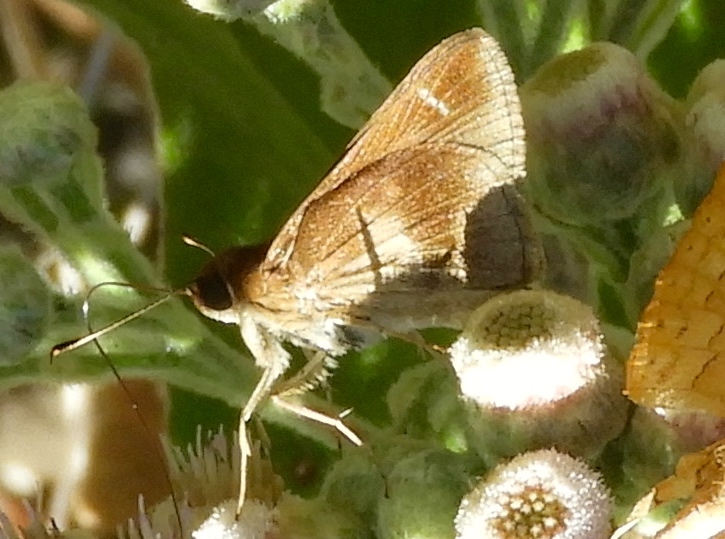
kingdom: Animalia
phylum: Arthropoda
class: Insecta
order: Lepidoptera
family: Hesperiidae
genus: Lerema
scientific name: Lerema accius
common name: Clouded skipper
